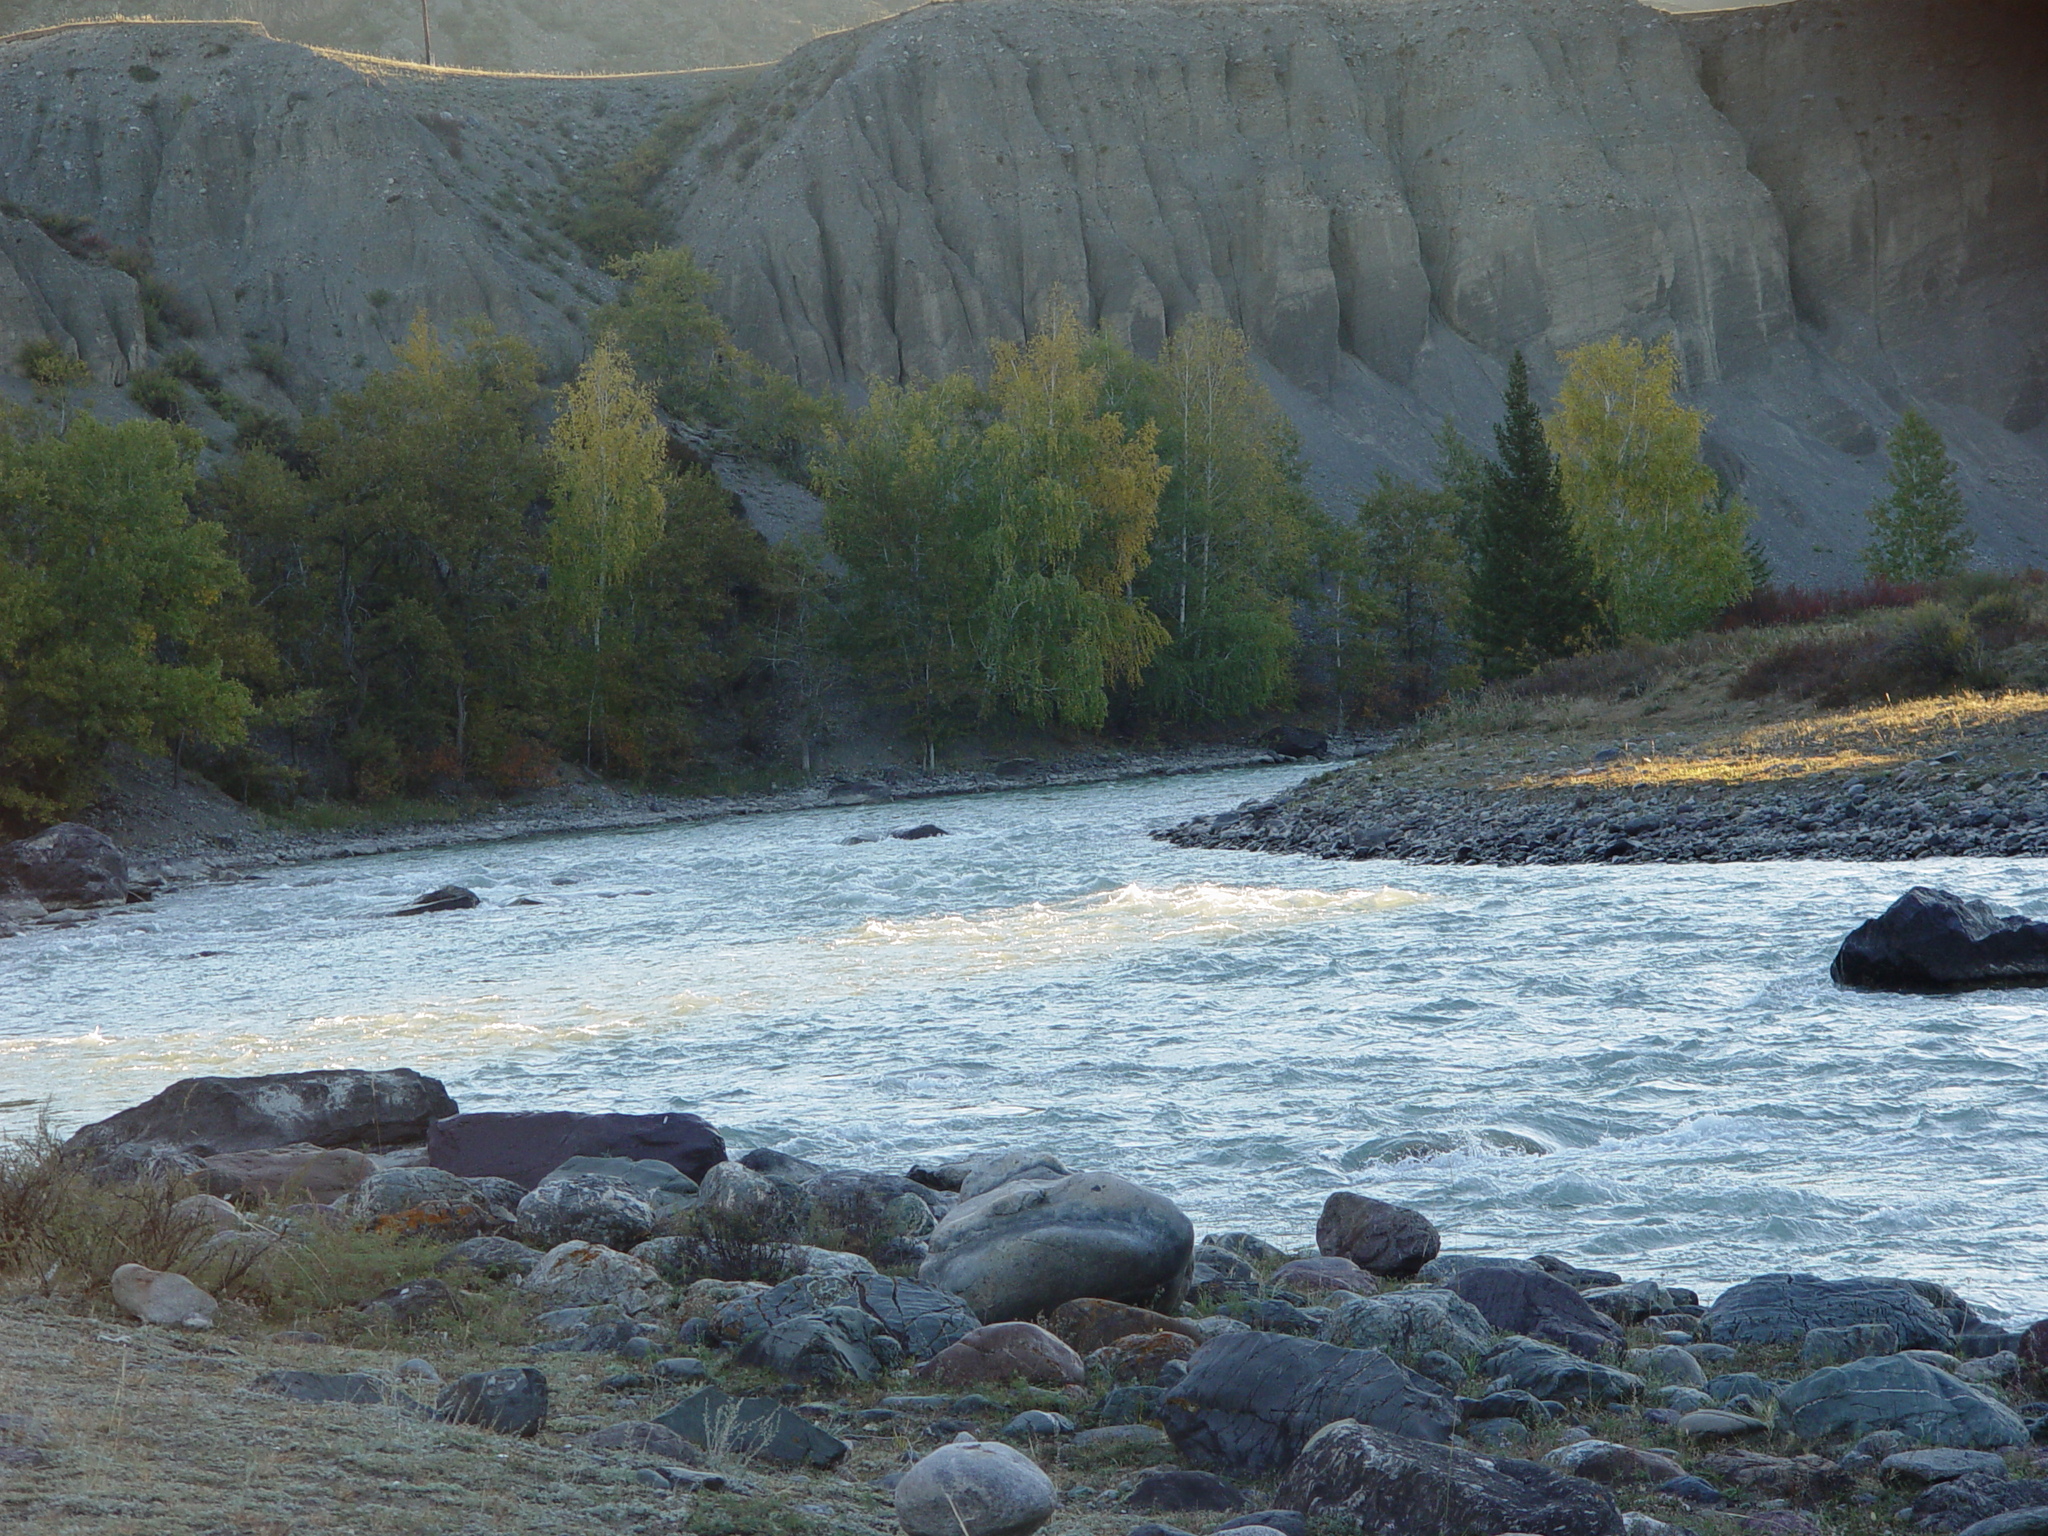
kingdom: Plantae
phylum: Tracheophyta
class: Magnoliopsida
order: Malpighiales
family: Salicaceae
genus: Populus
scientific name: Populus laurifolia
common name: Laurel-leaf poplar
